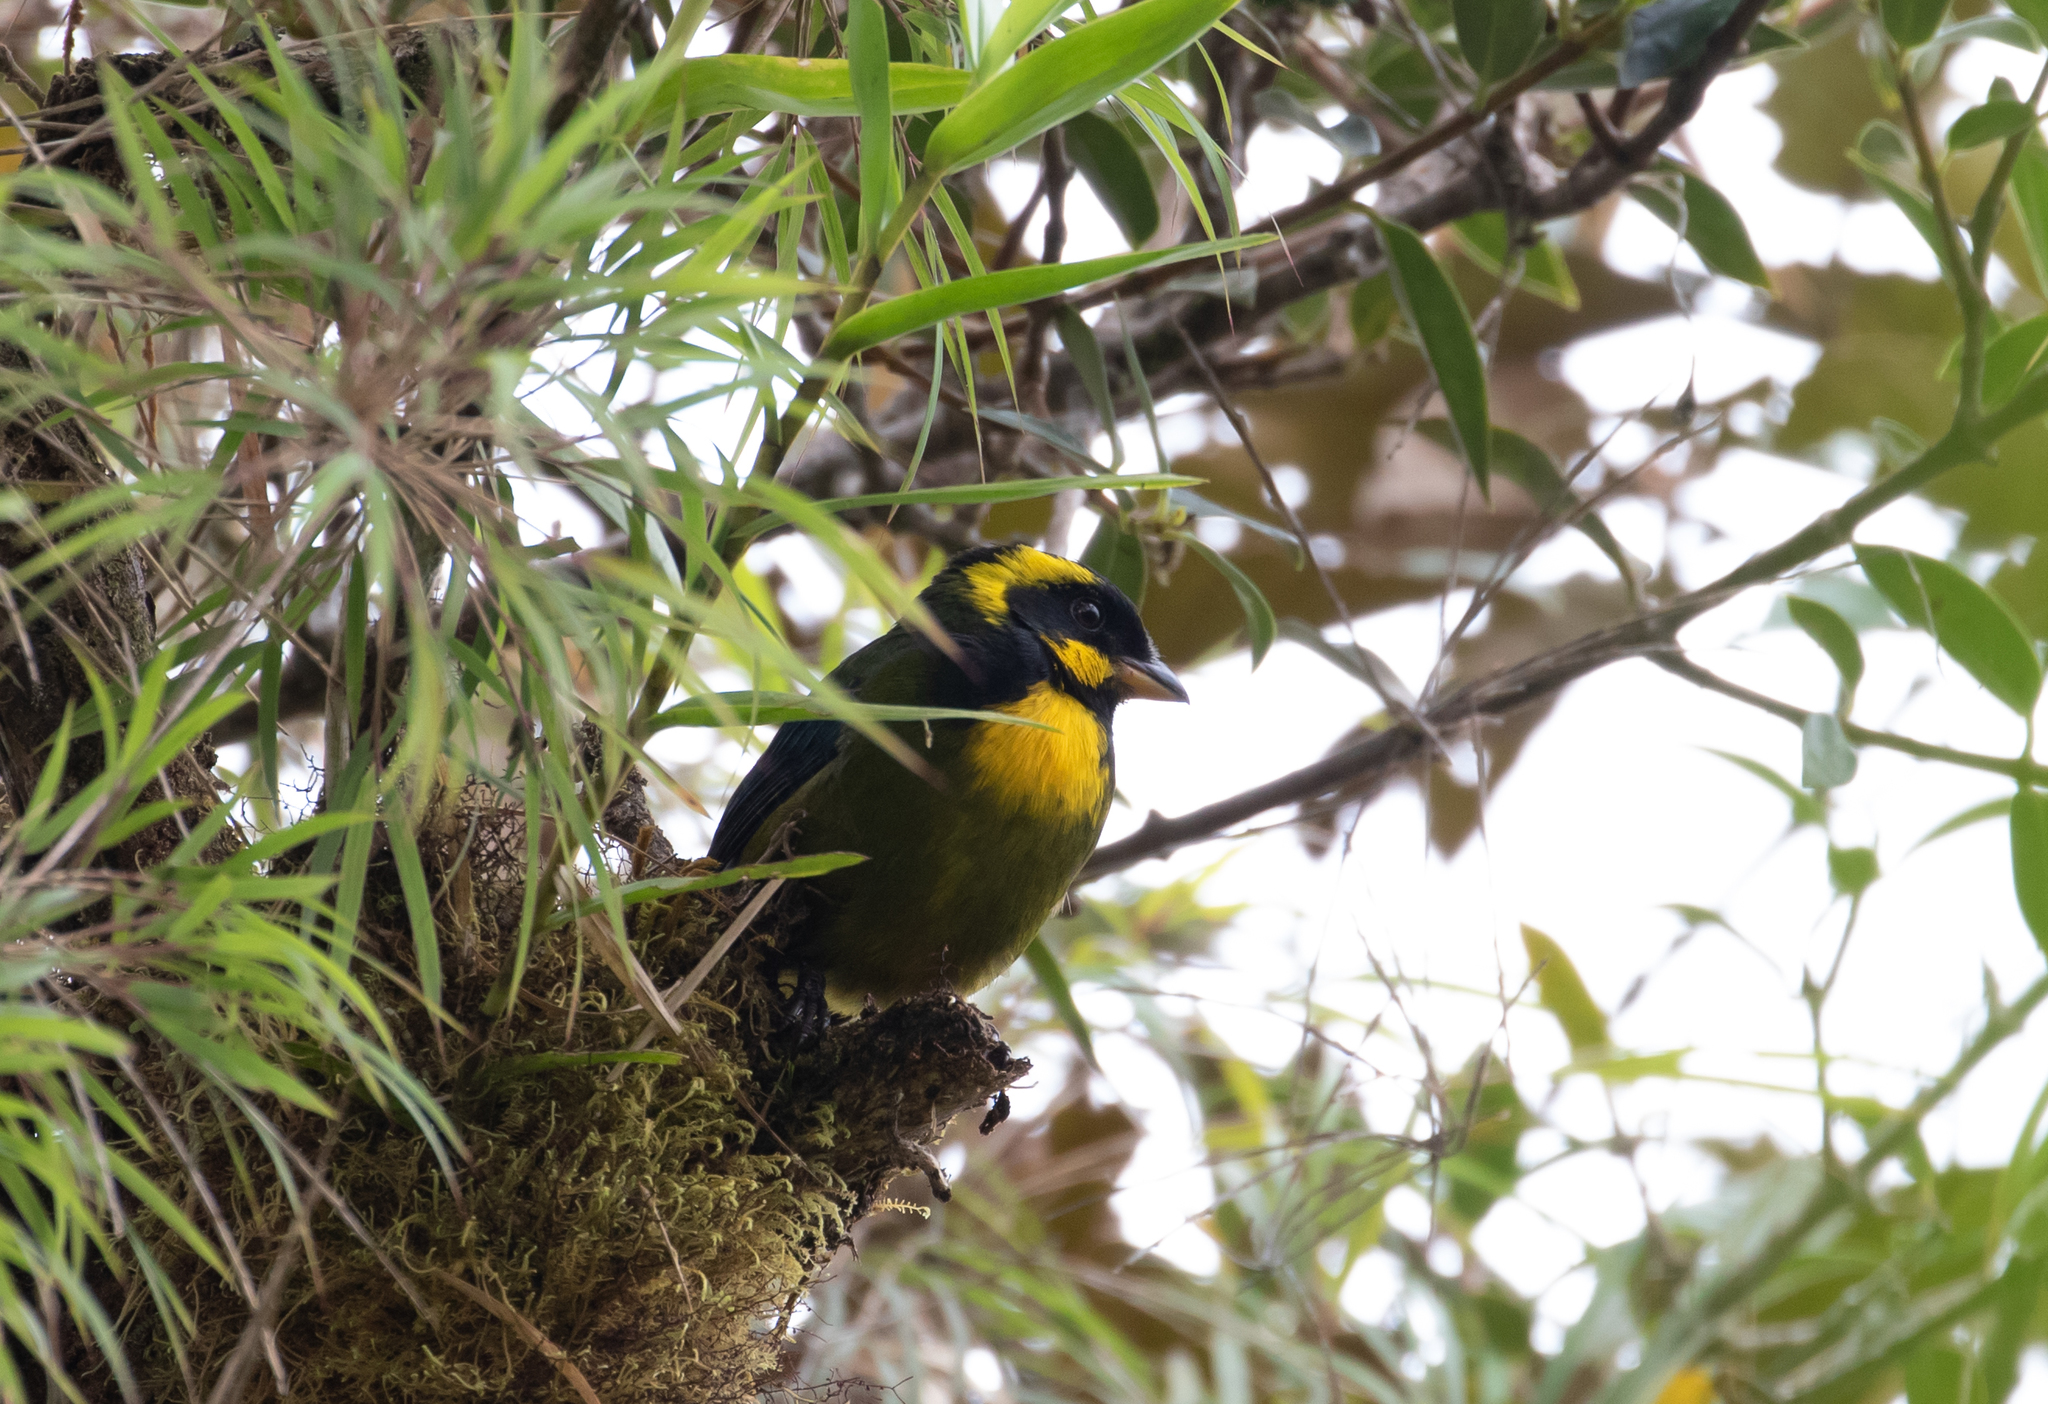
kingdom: Animalia
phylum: Chordata
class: Aves
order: Passeriformes
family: Thraupidae
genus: Bangsia
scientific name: Bangsia aureocincta
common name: Gold-ringed tanager
